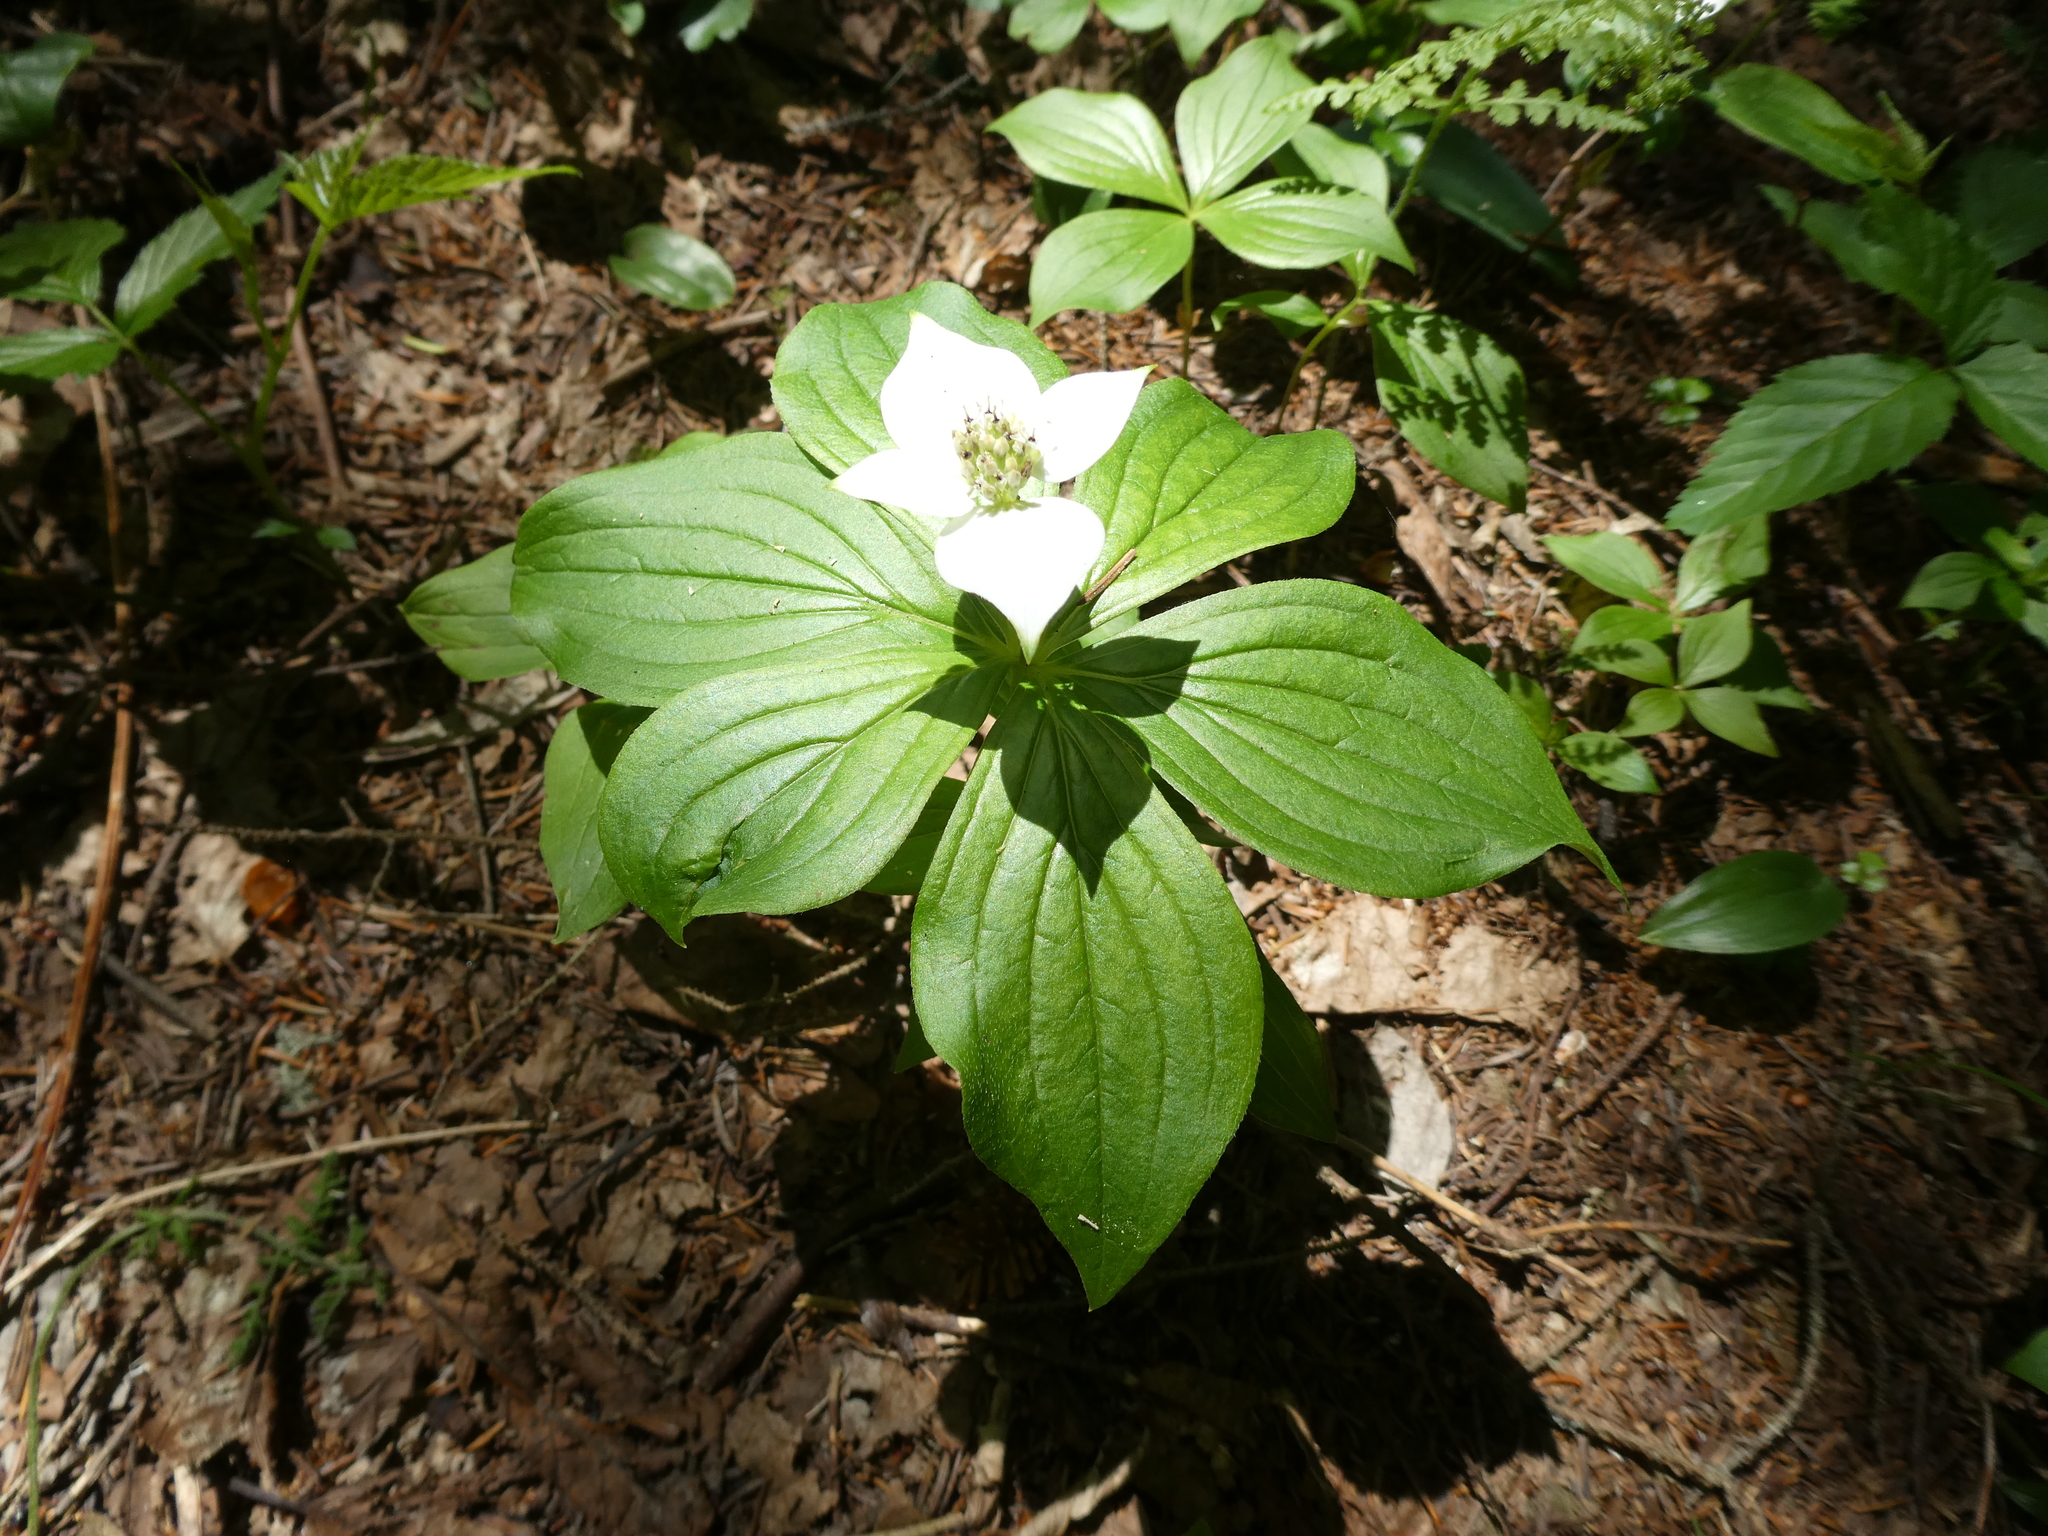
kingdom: Plantae
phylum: Tracheophyta
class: Magnoliopsida
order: Cornales
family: Cornaceae
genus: Cornus
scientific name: Cornus canadensis
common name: Creeping dogwood
